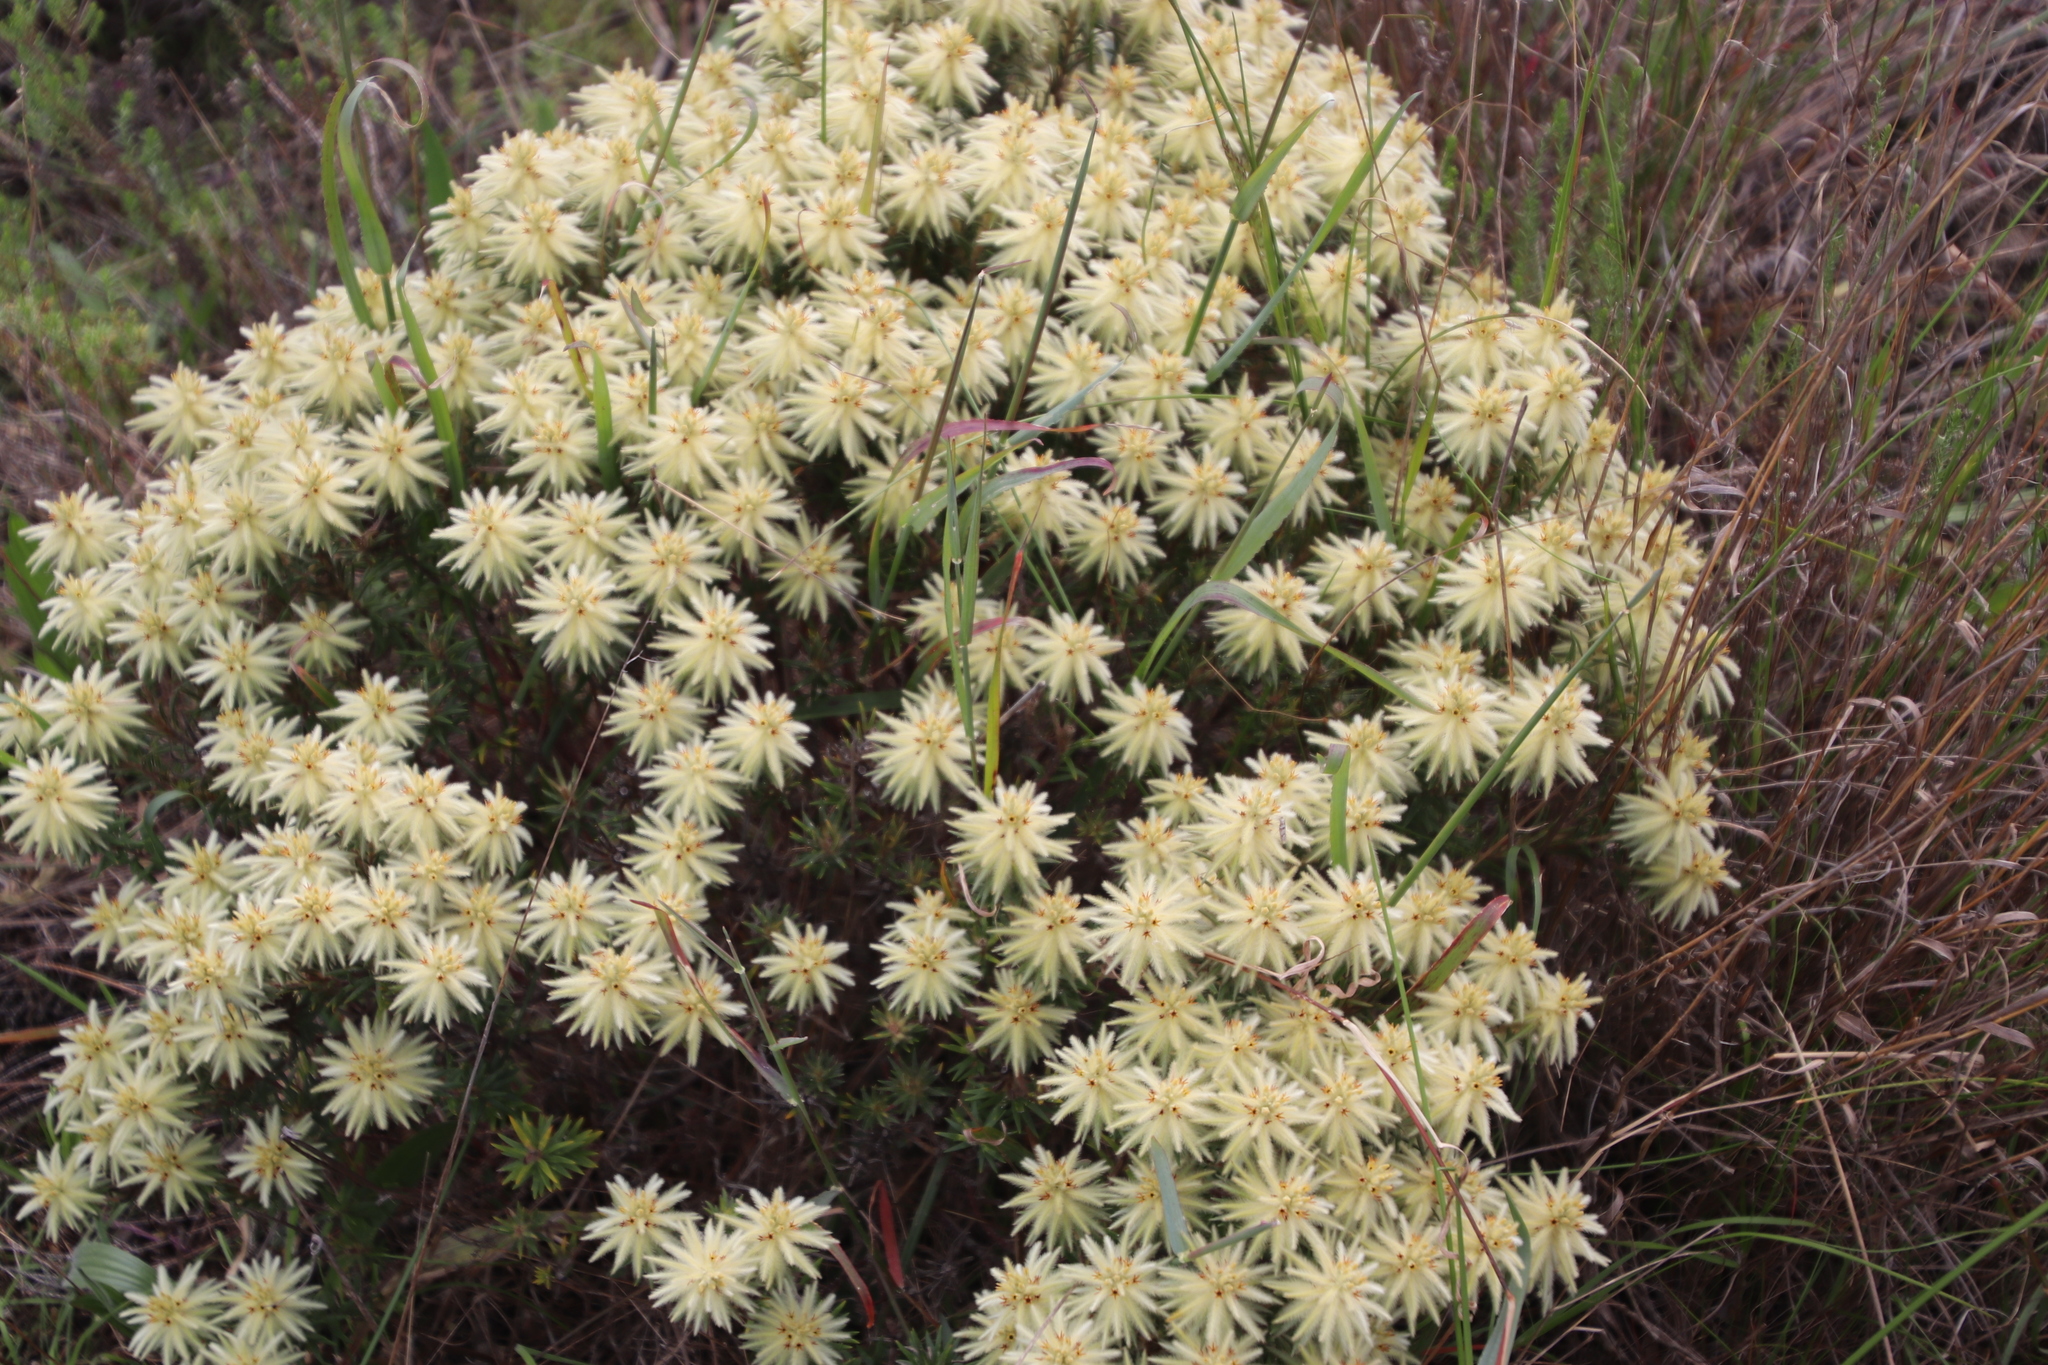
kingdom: Plantae
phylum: Tracheophyta
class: Magnoliopsida
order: Rosales
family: Rhamnaceae
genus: Phylica
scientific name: Phylica pubescens
